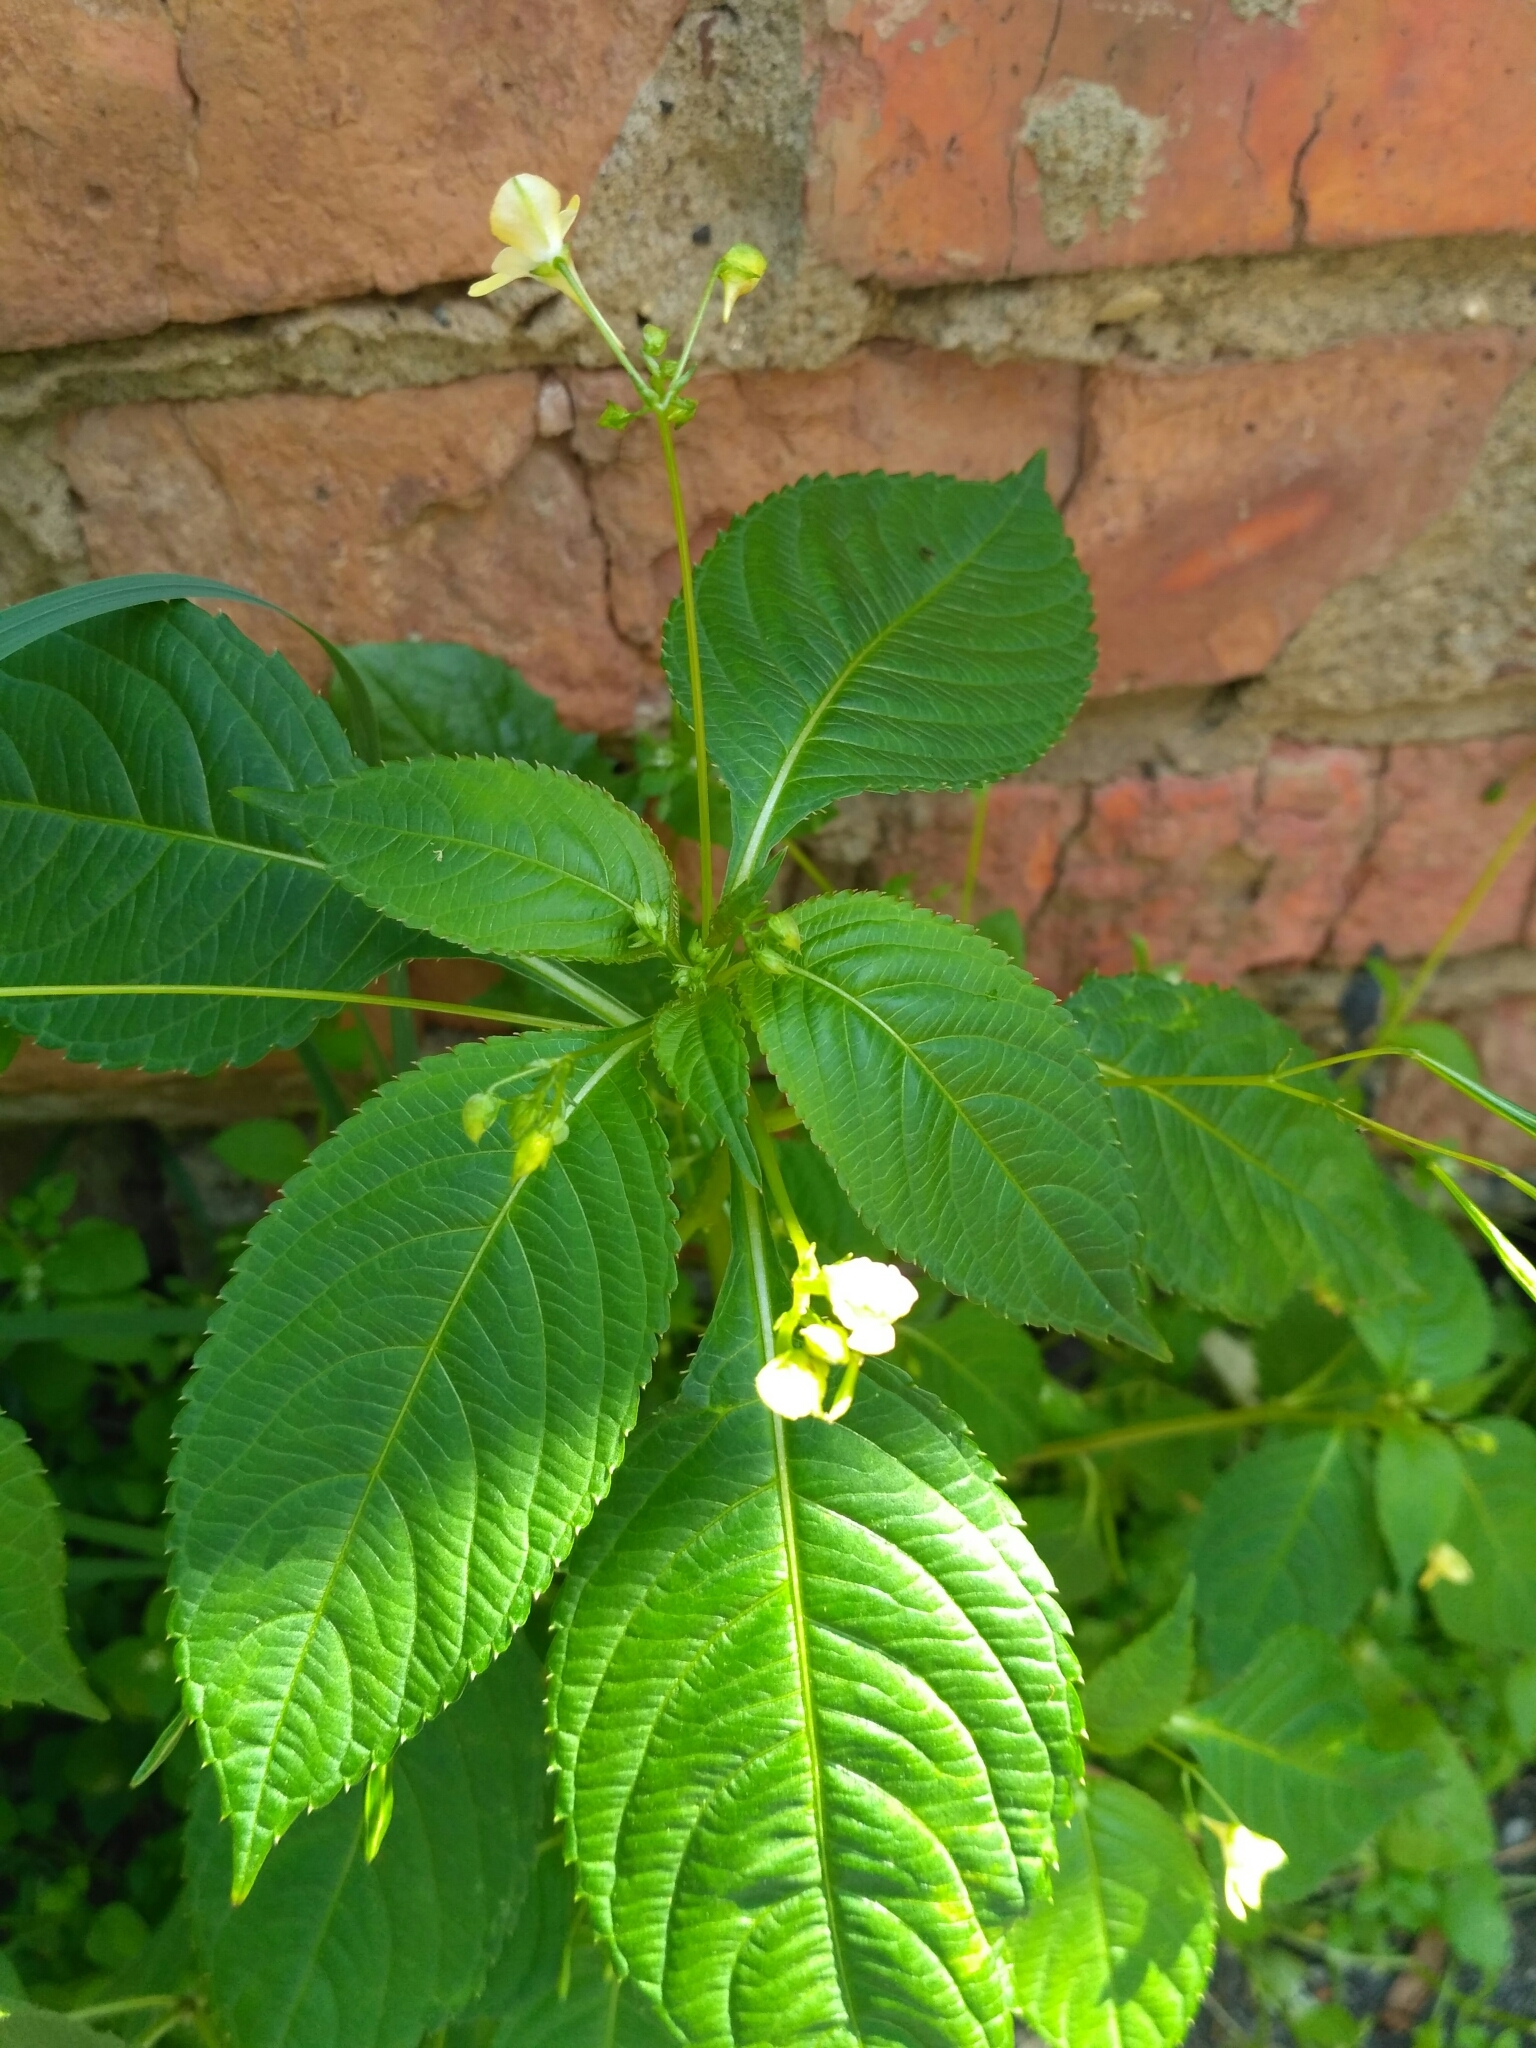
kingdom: Plantae
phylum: Tracheophyta
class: Magnoliopsida
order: Ericales
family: Balsaminaceae
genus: Impatiens
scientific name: Impatiens parviflora
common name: Small balsam
